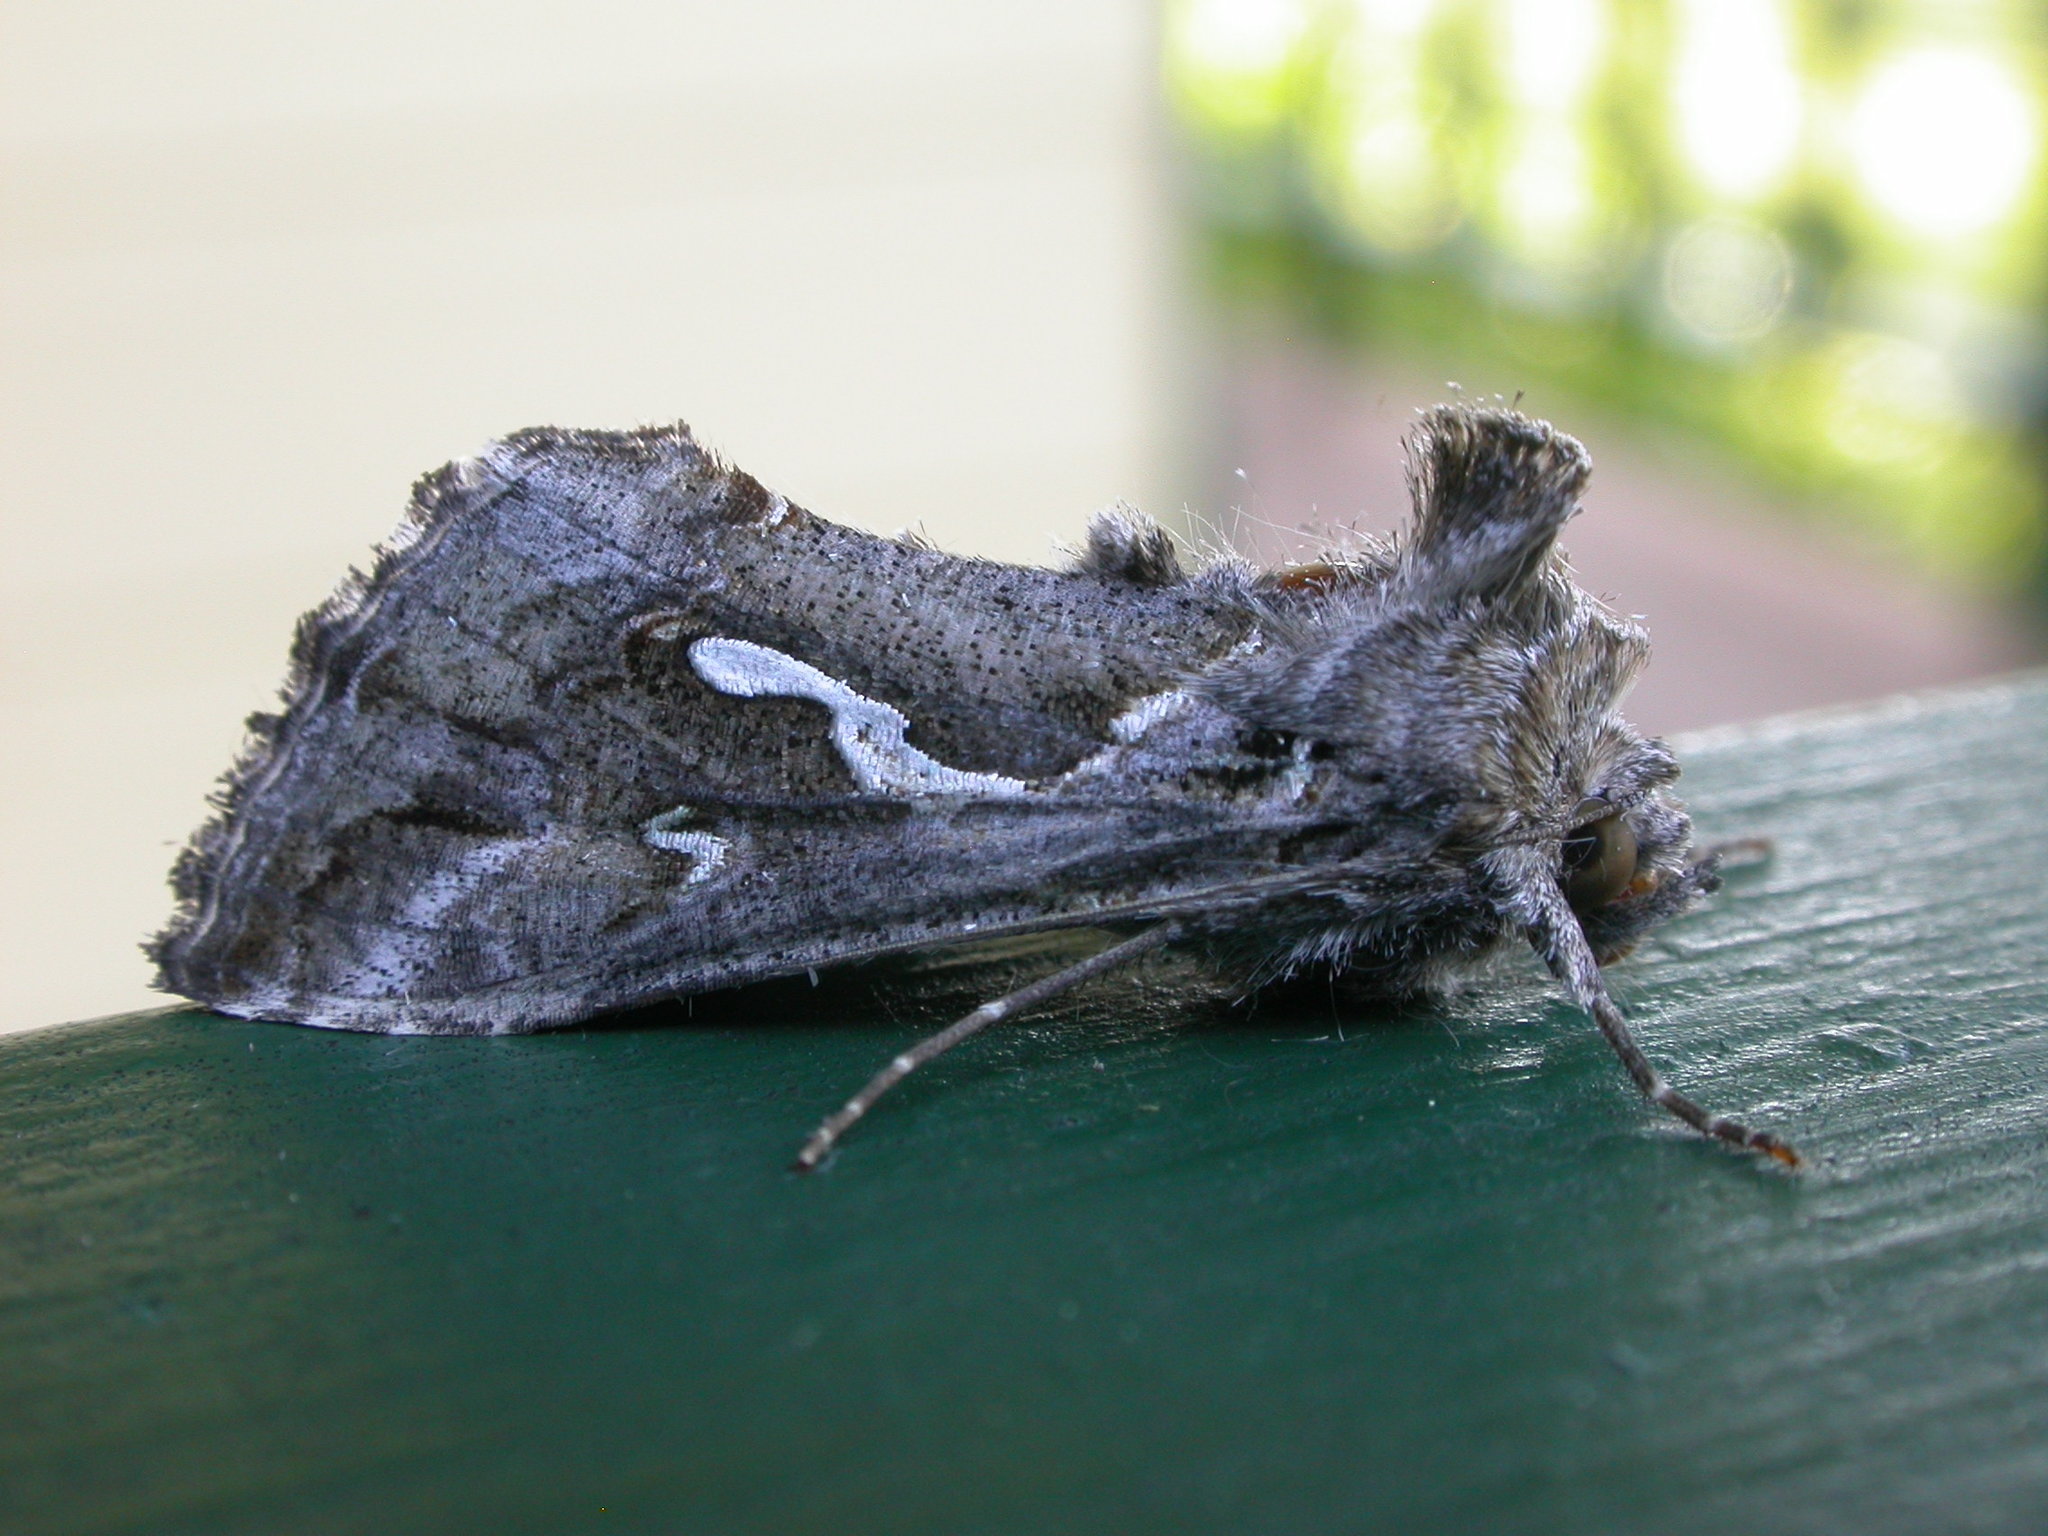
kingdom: Animalia
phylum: Arthropoda
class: Insecta
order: Lepidoptera
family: Noctuidae
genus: Chrysodeixis
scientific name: Chrysodeixis argentifera
